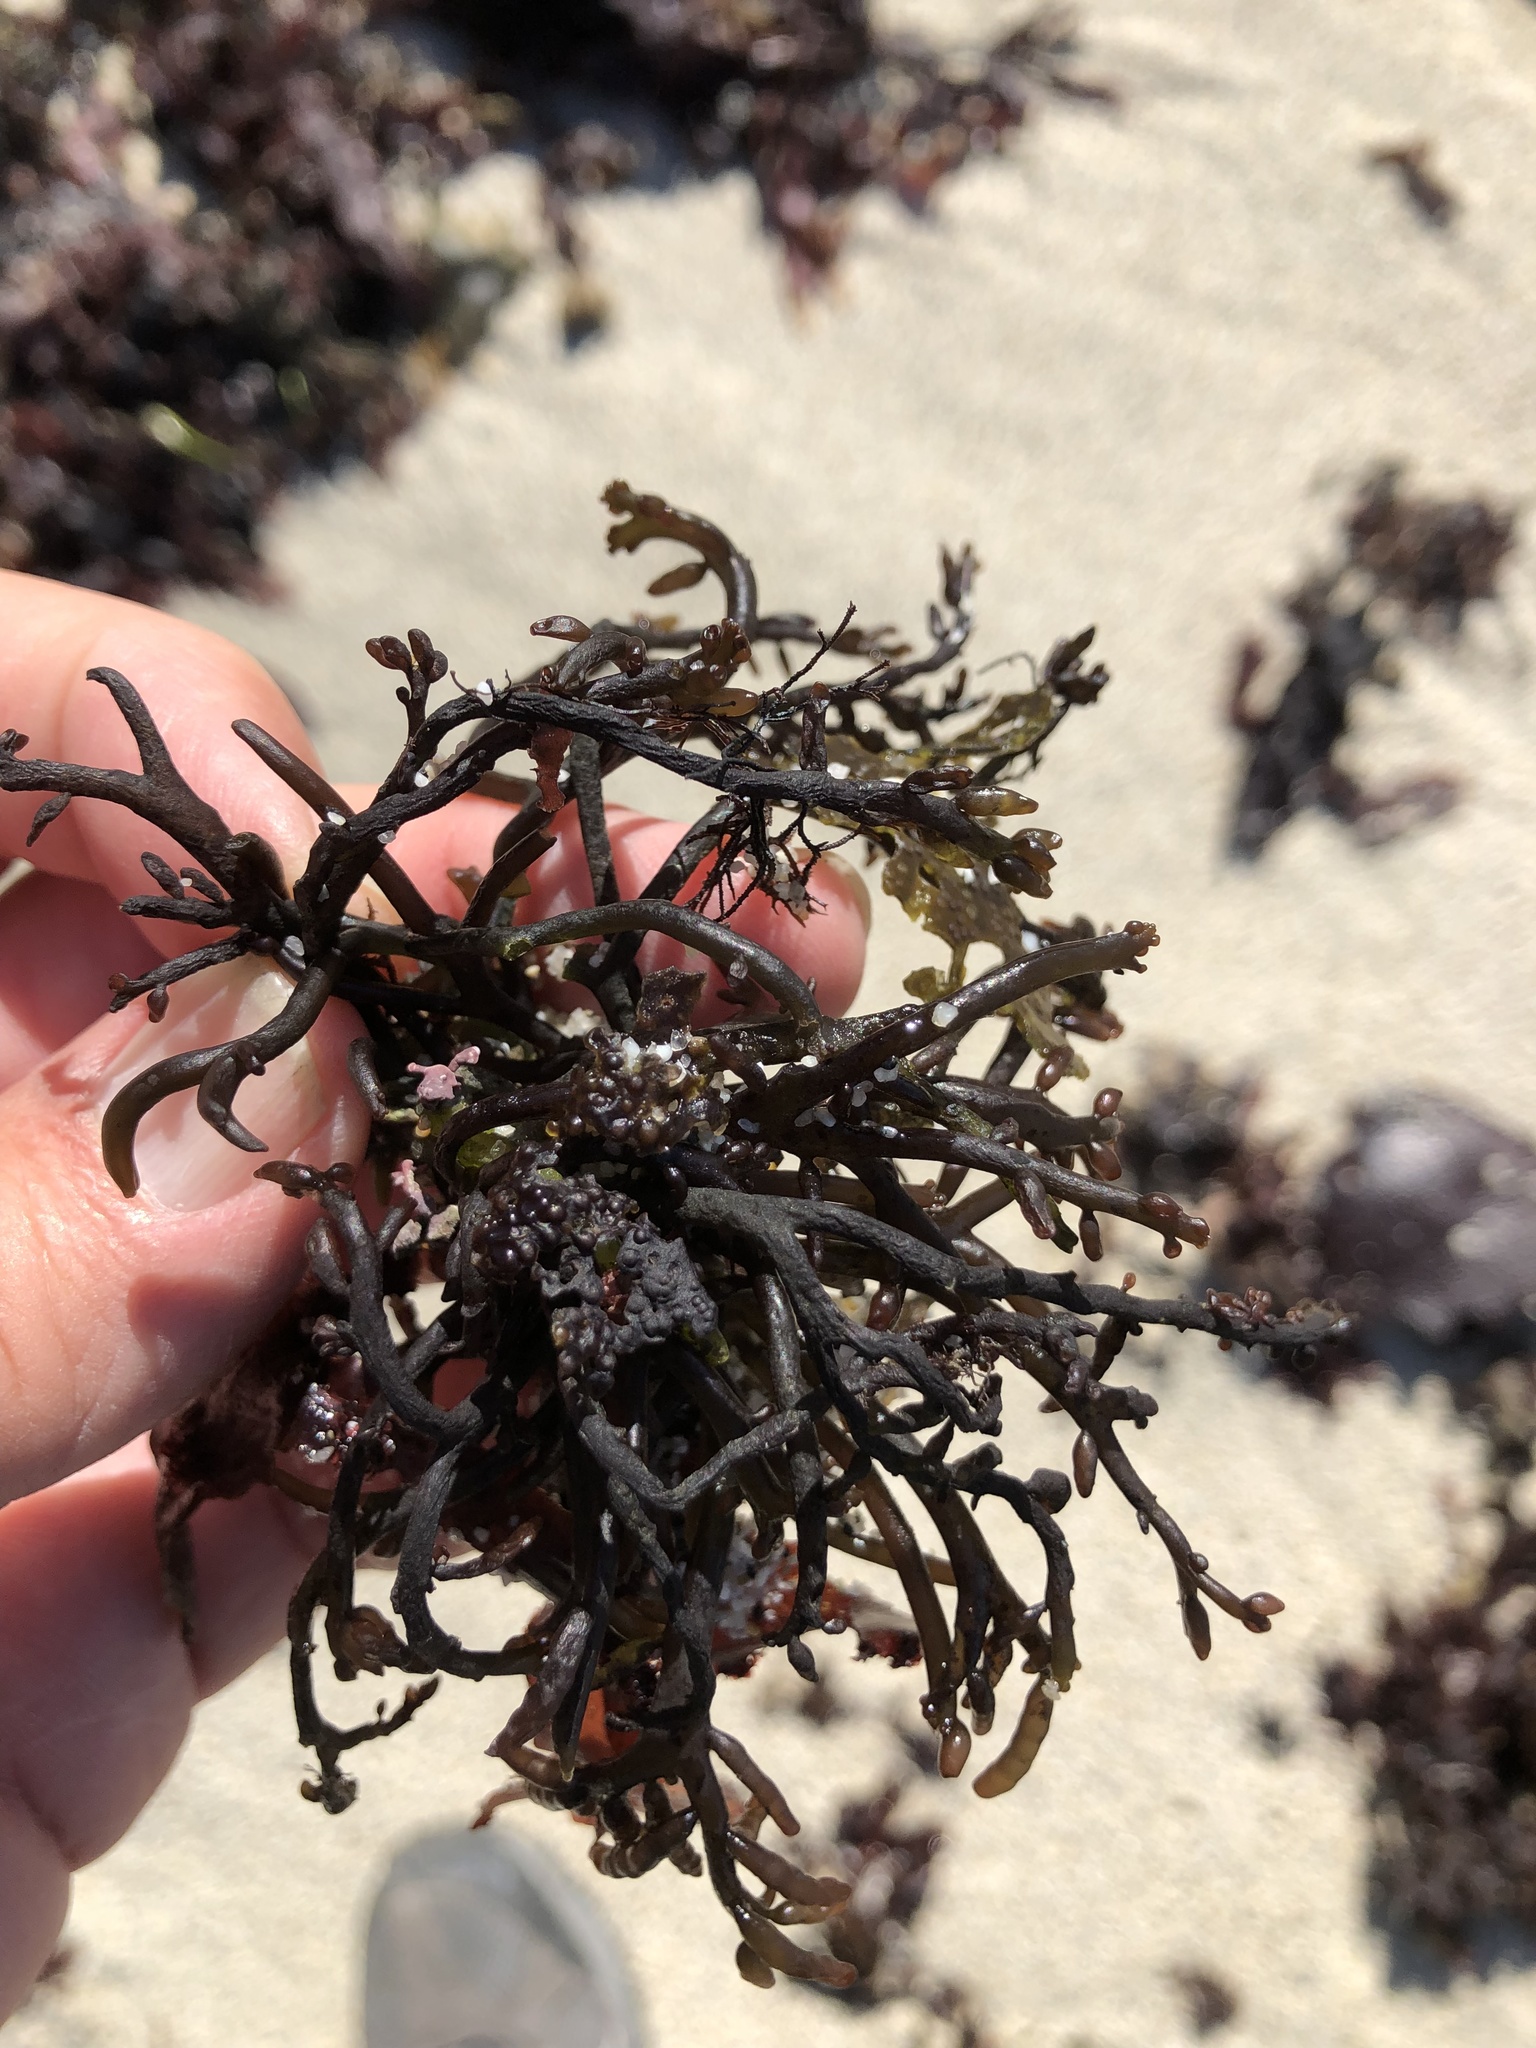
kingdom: Plantae
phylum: Rhodophyta
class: Florideophyceae
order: Rhodymeniales
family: Champiaceae
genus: Neogastroclonium
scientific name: Neogastroclonium subarticulatum
